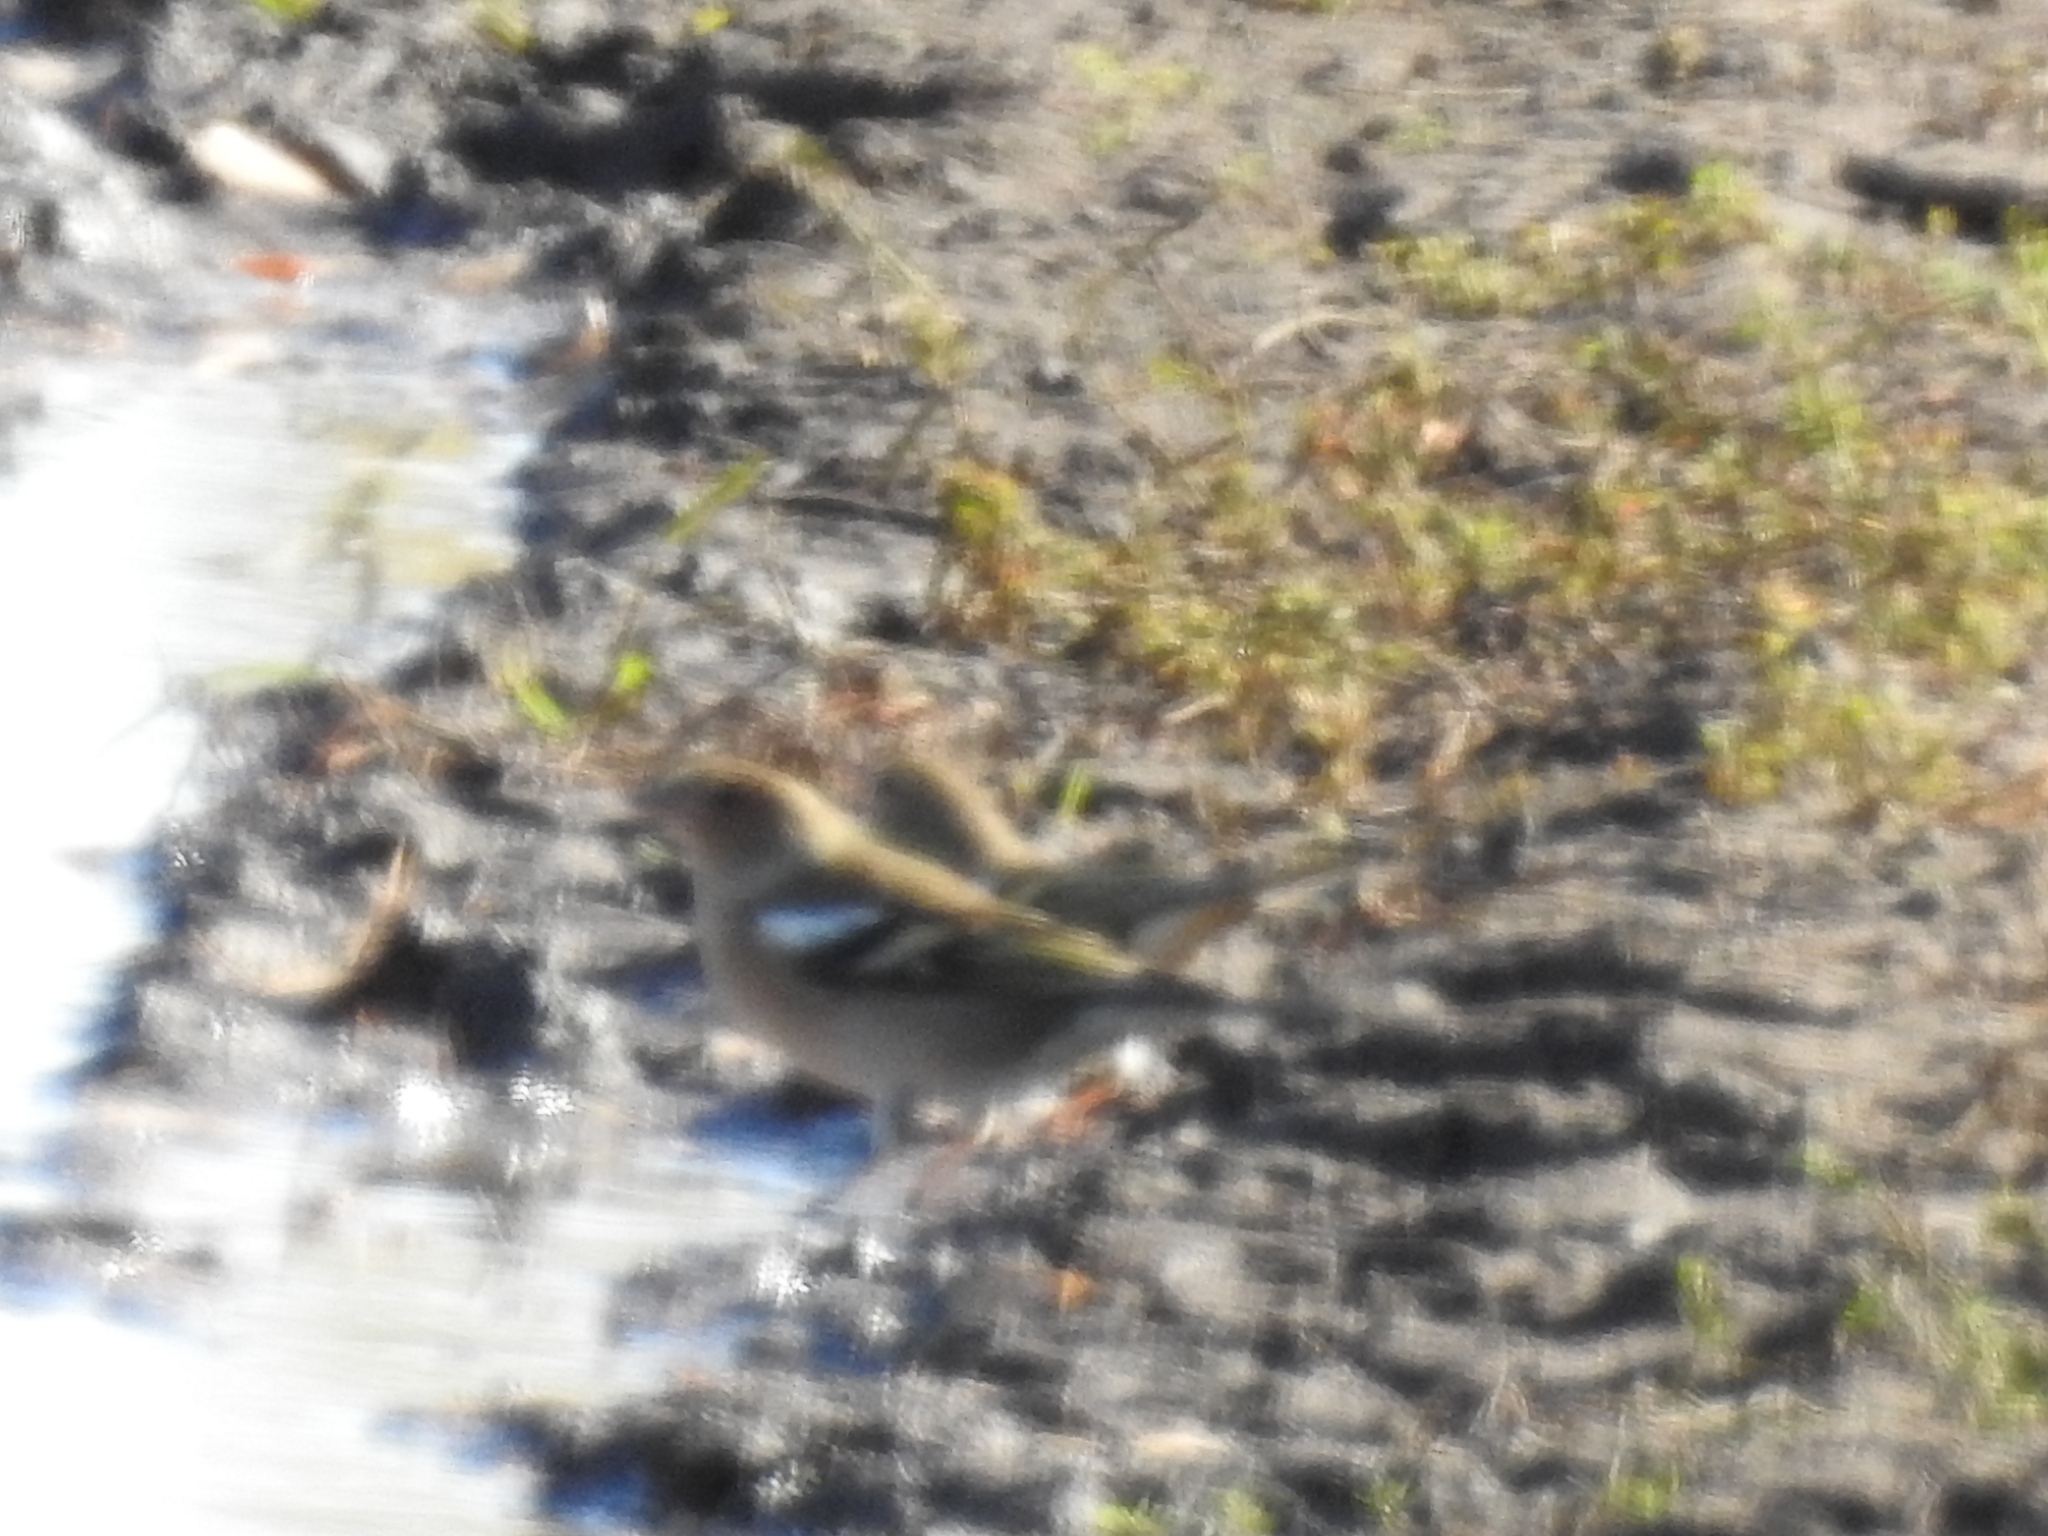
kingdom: Animalia
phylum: Chordata
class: Aves
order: Passeriformes
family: Fringillidae
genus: Fringilla
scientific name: Fringilla coelebs
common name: Common chaffinch
